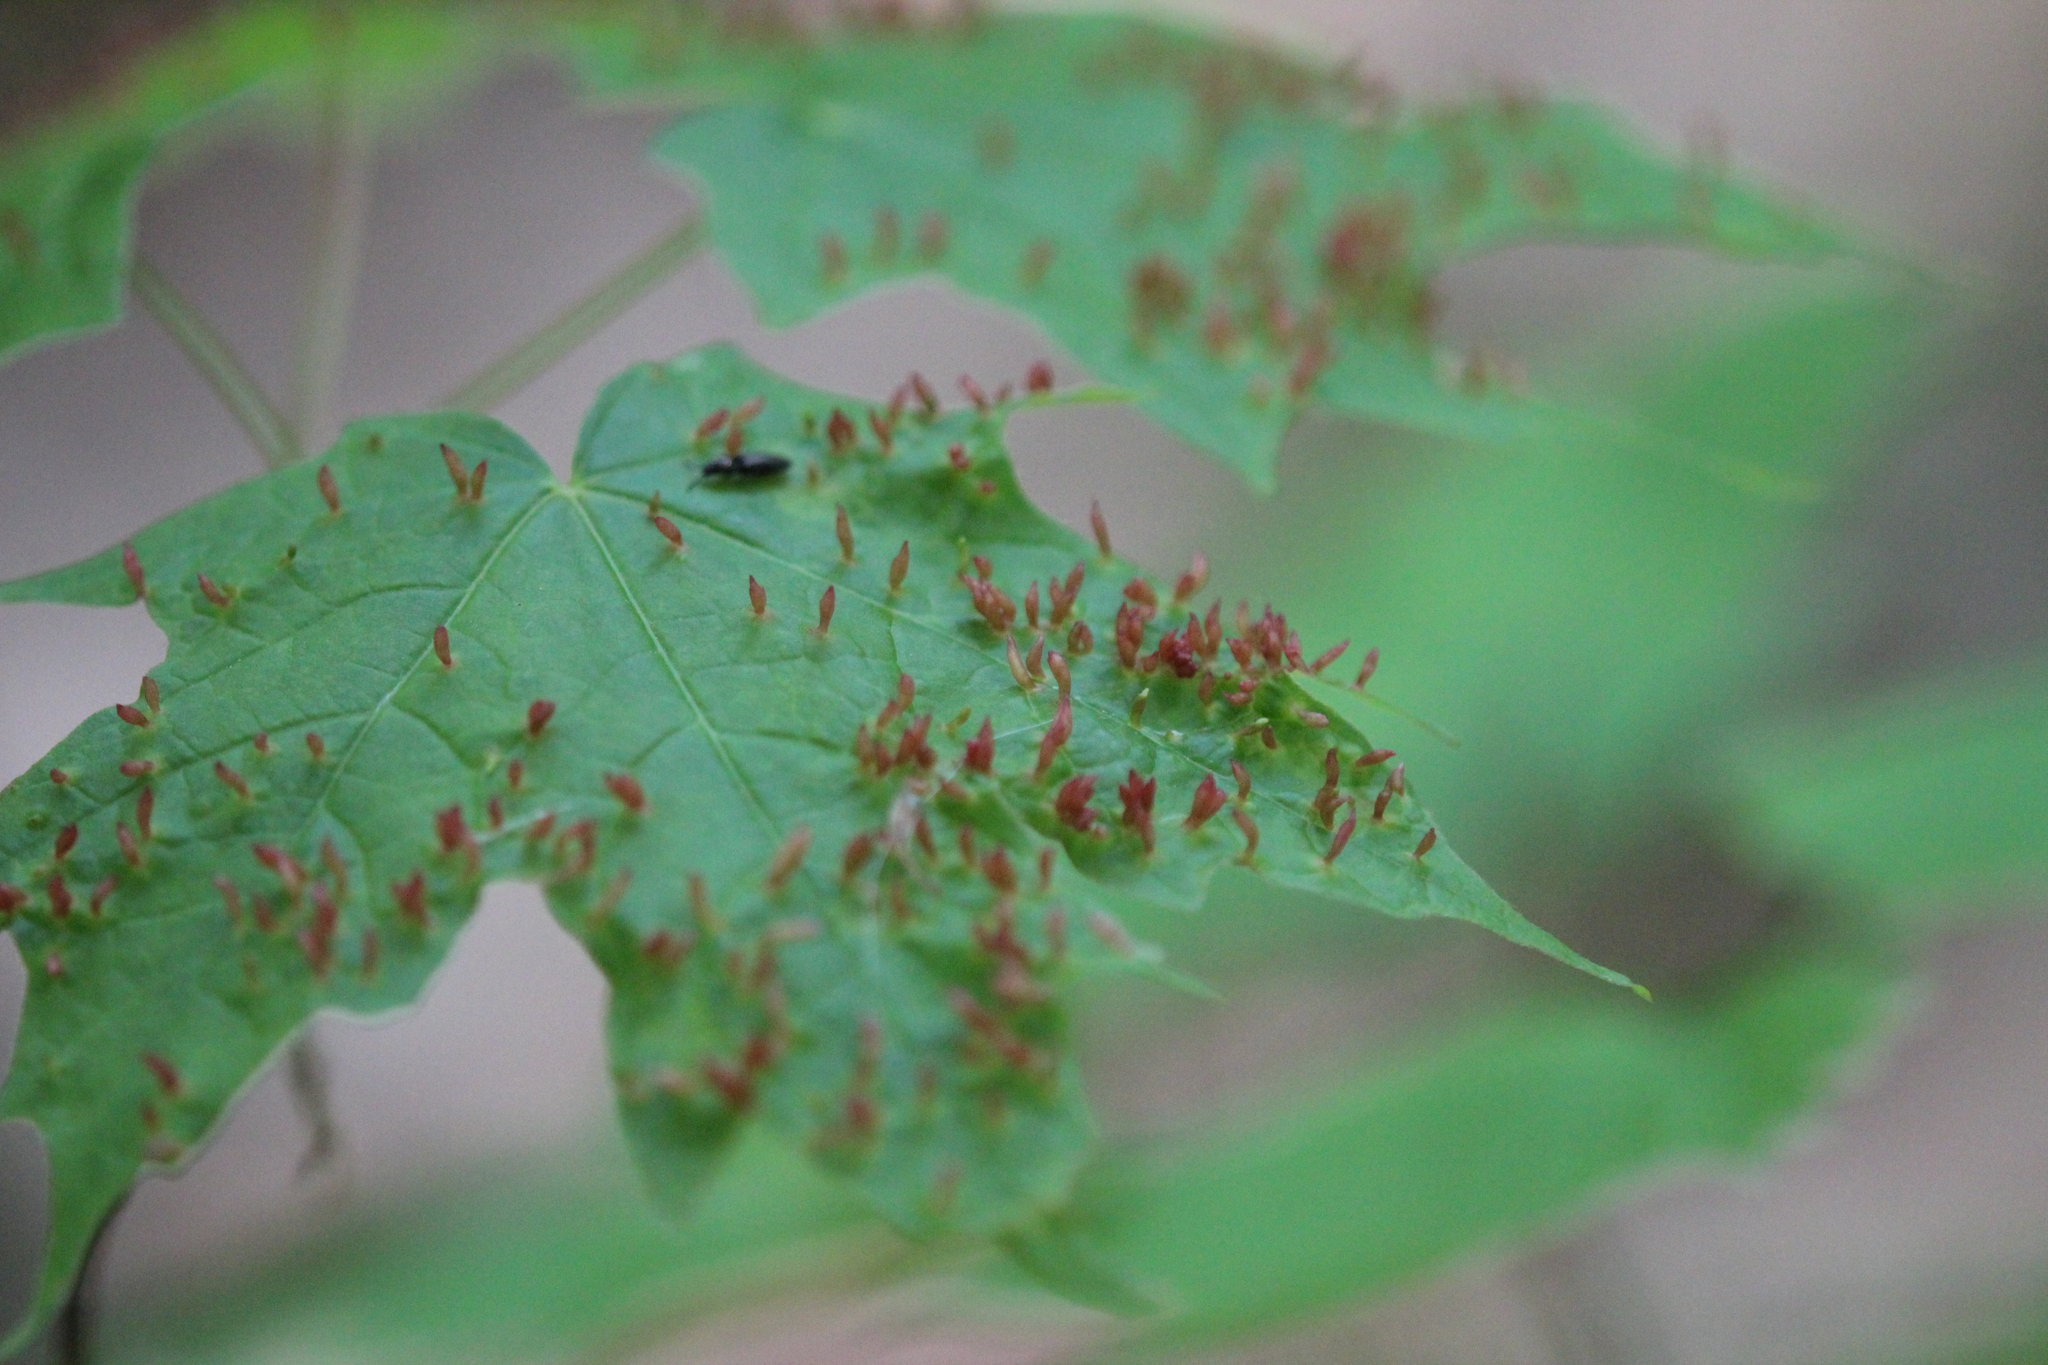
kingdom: Animalia
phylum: Arthropoda
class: Arachnida
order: Trombidiformes
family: Eriophyidae
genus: Vasates
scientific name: Vasates aceriscrumena
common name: Maple spindle gall mite
